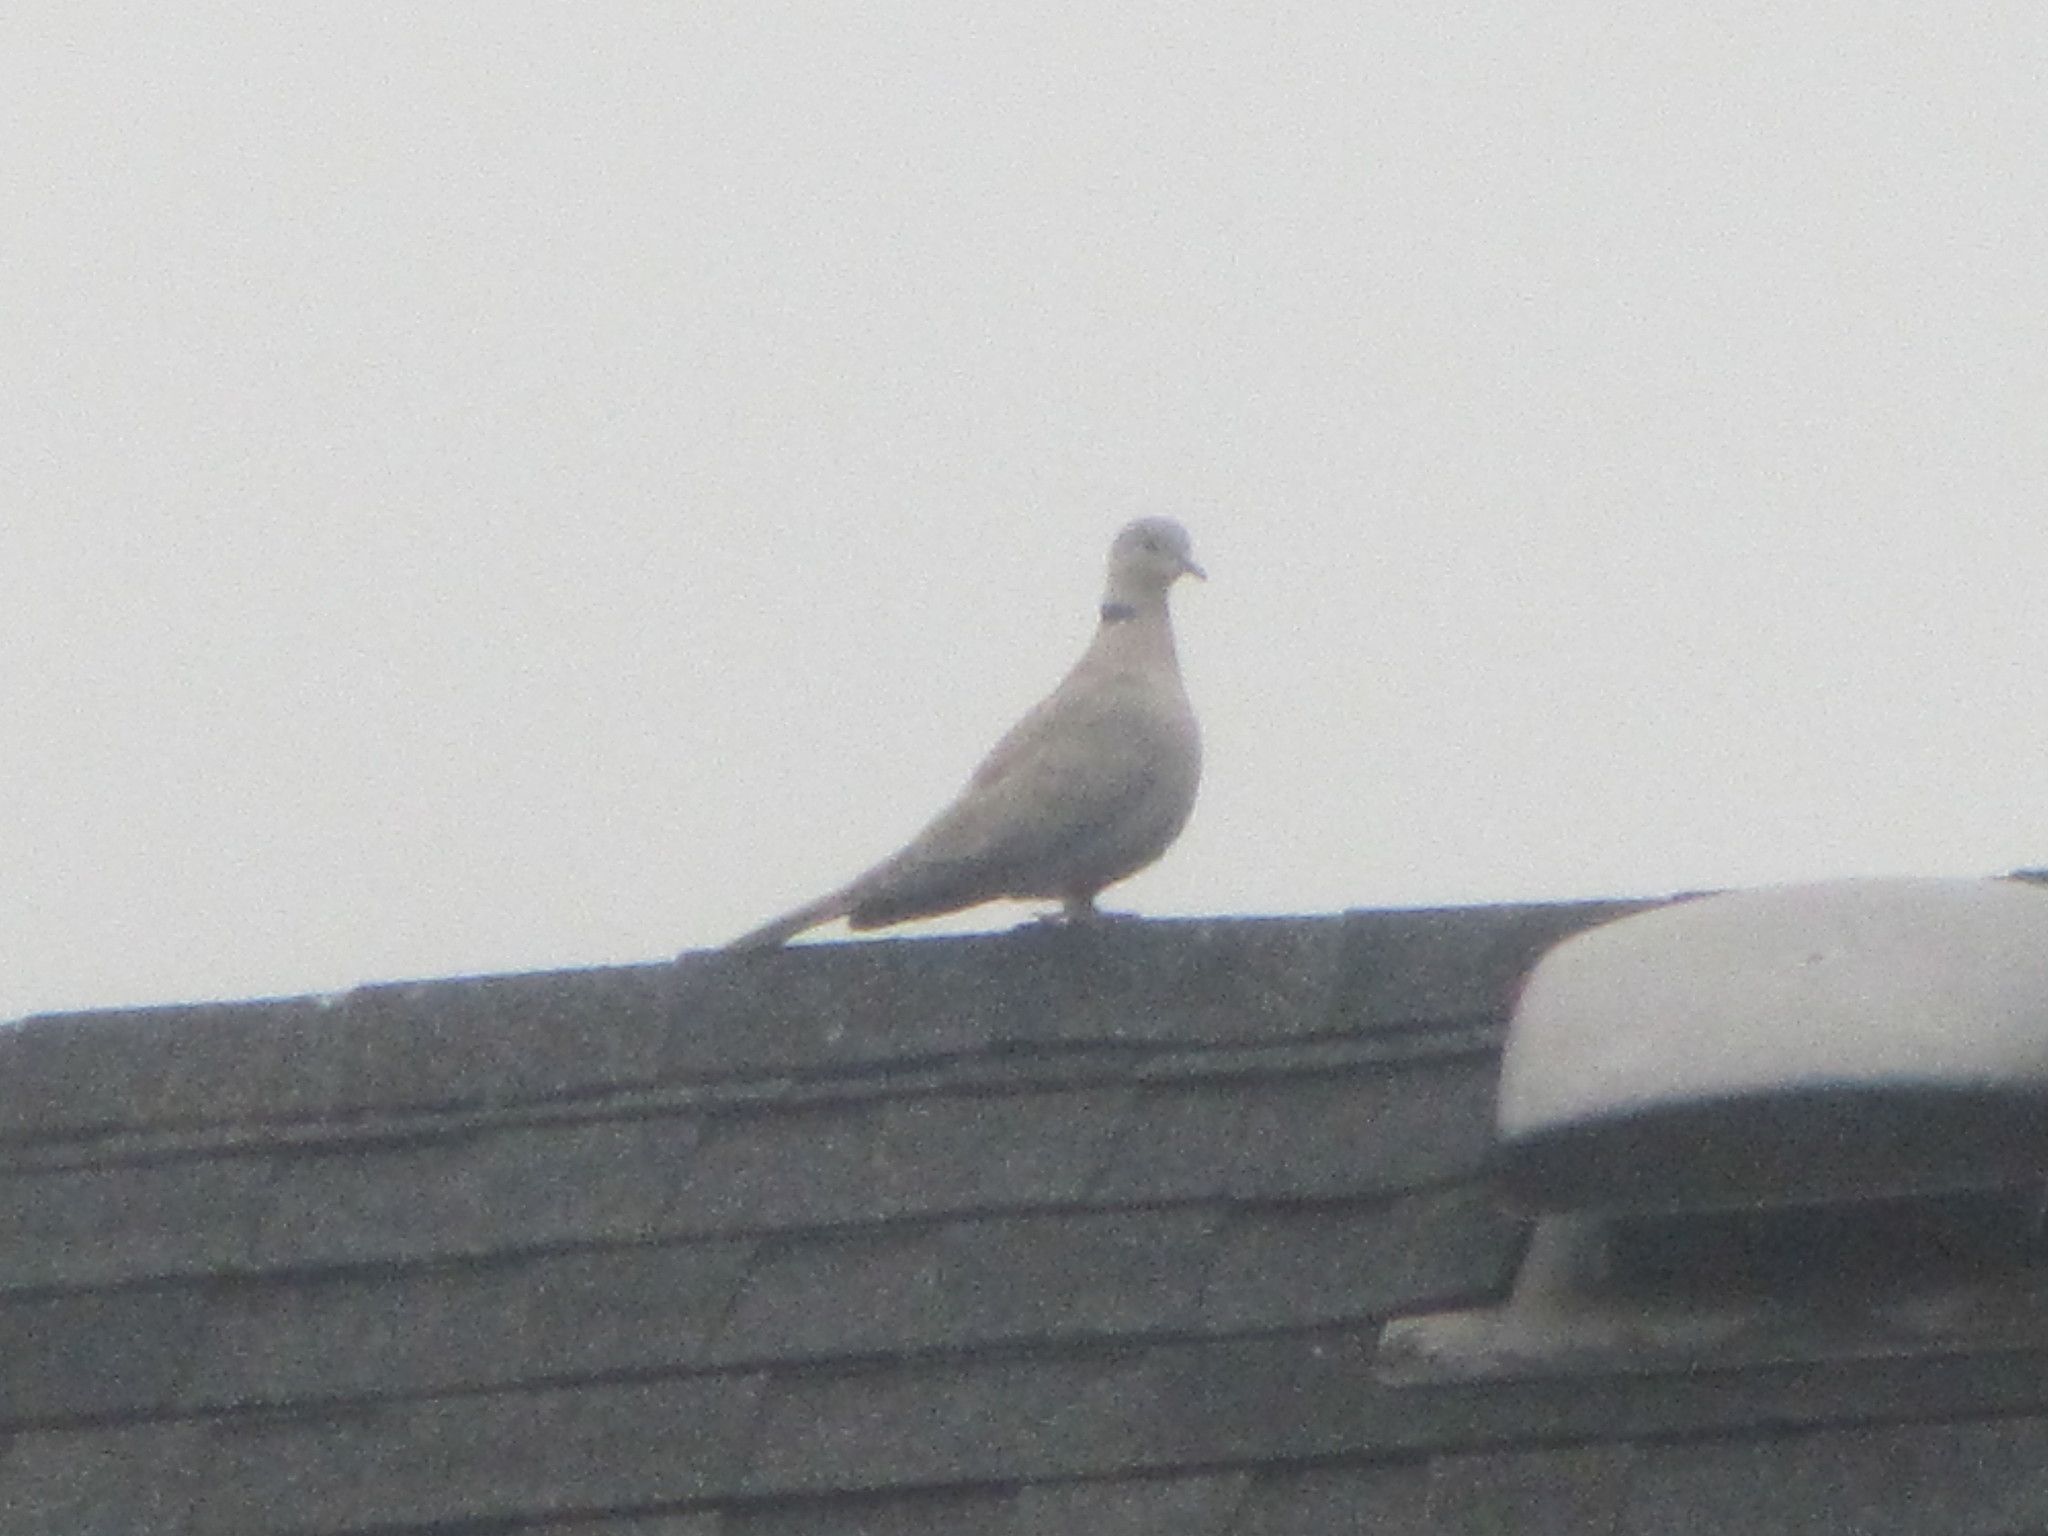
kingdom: Animalia
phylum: Chordata
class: Aves
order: Columbiformes
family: Columbidae
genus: Streptopelia
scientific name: Streptopelia decaocto
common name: Eurasian collared dove
